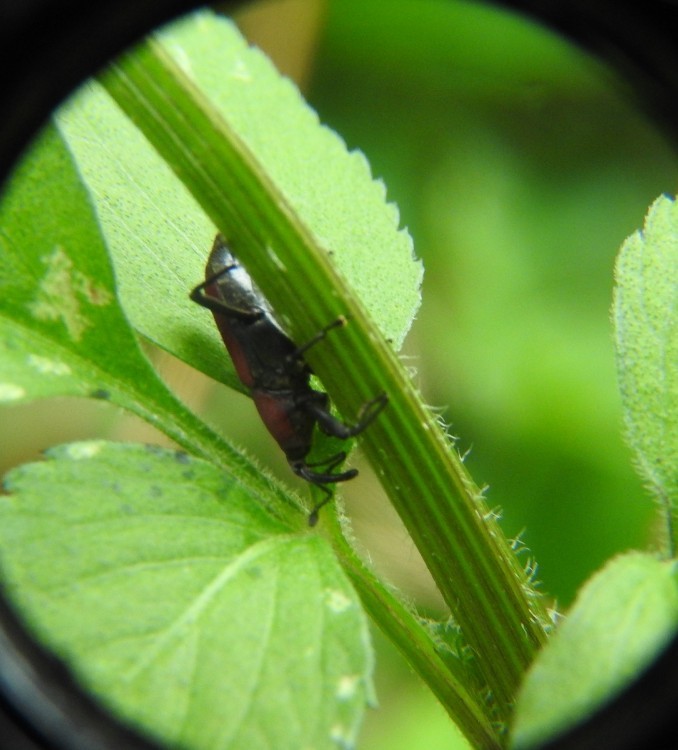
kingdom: Animalia
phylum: Arthropoda
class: Insecta
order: Coleoptera
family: Dryophthoridae
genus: Rhodobaenus
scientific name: Rhodobaenus sanguineus
